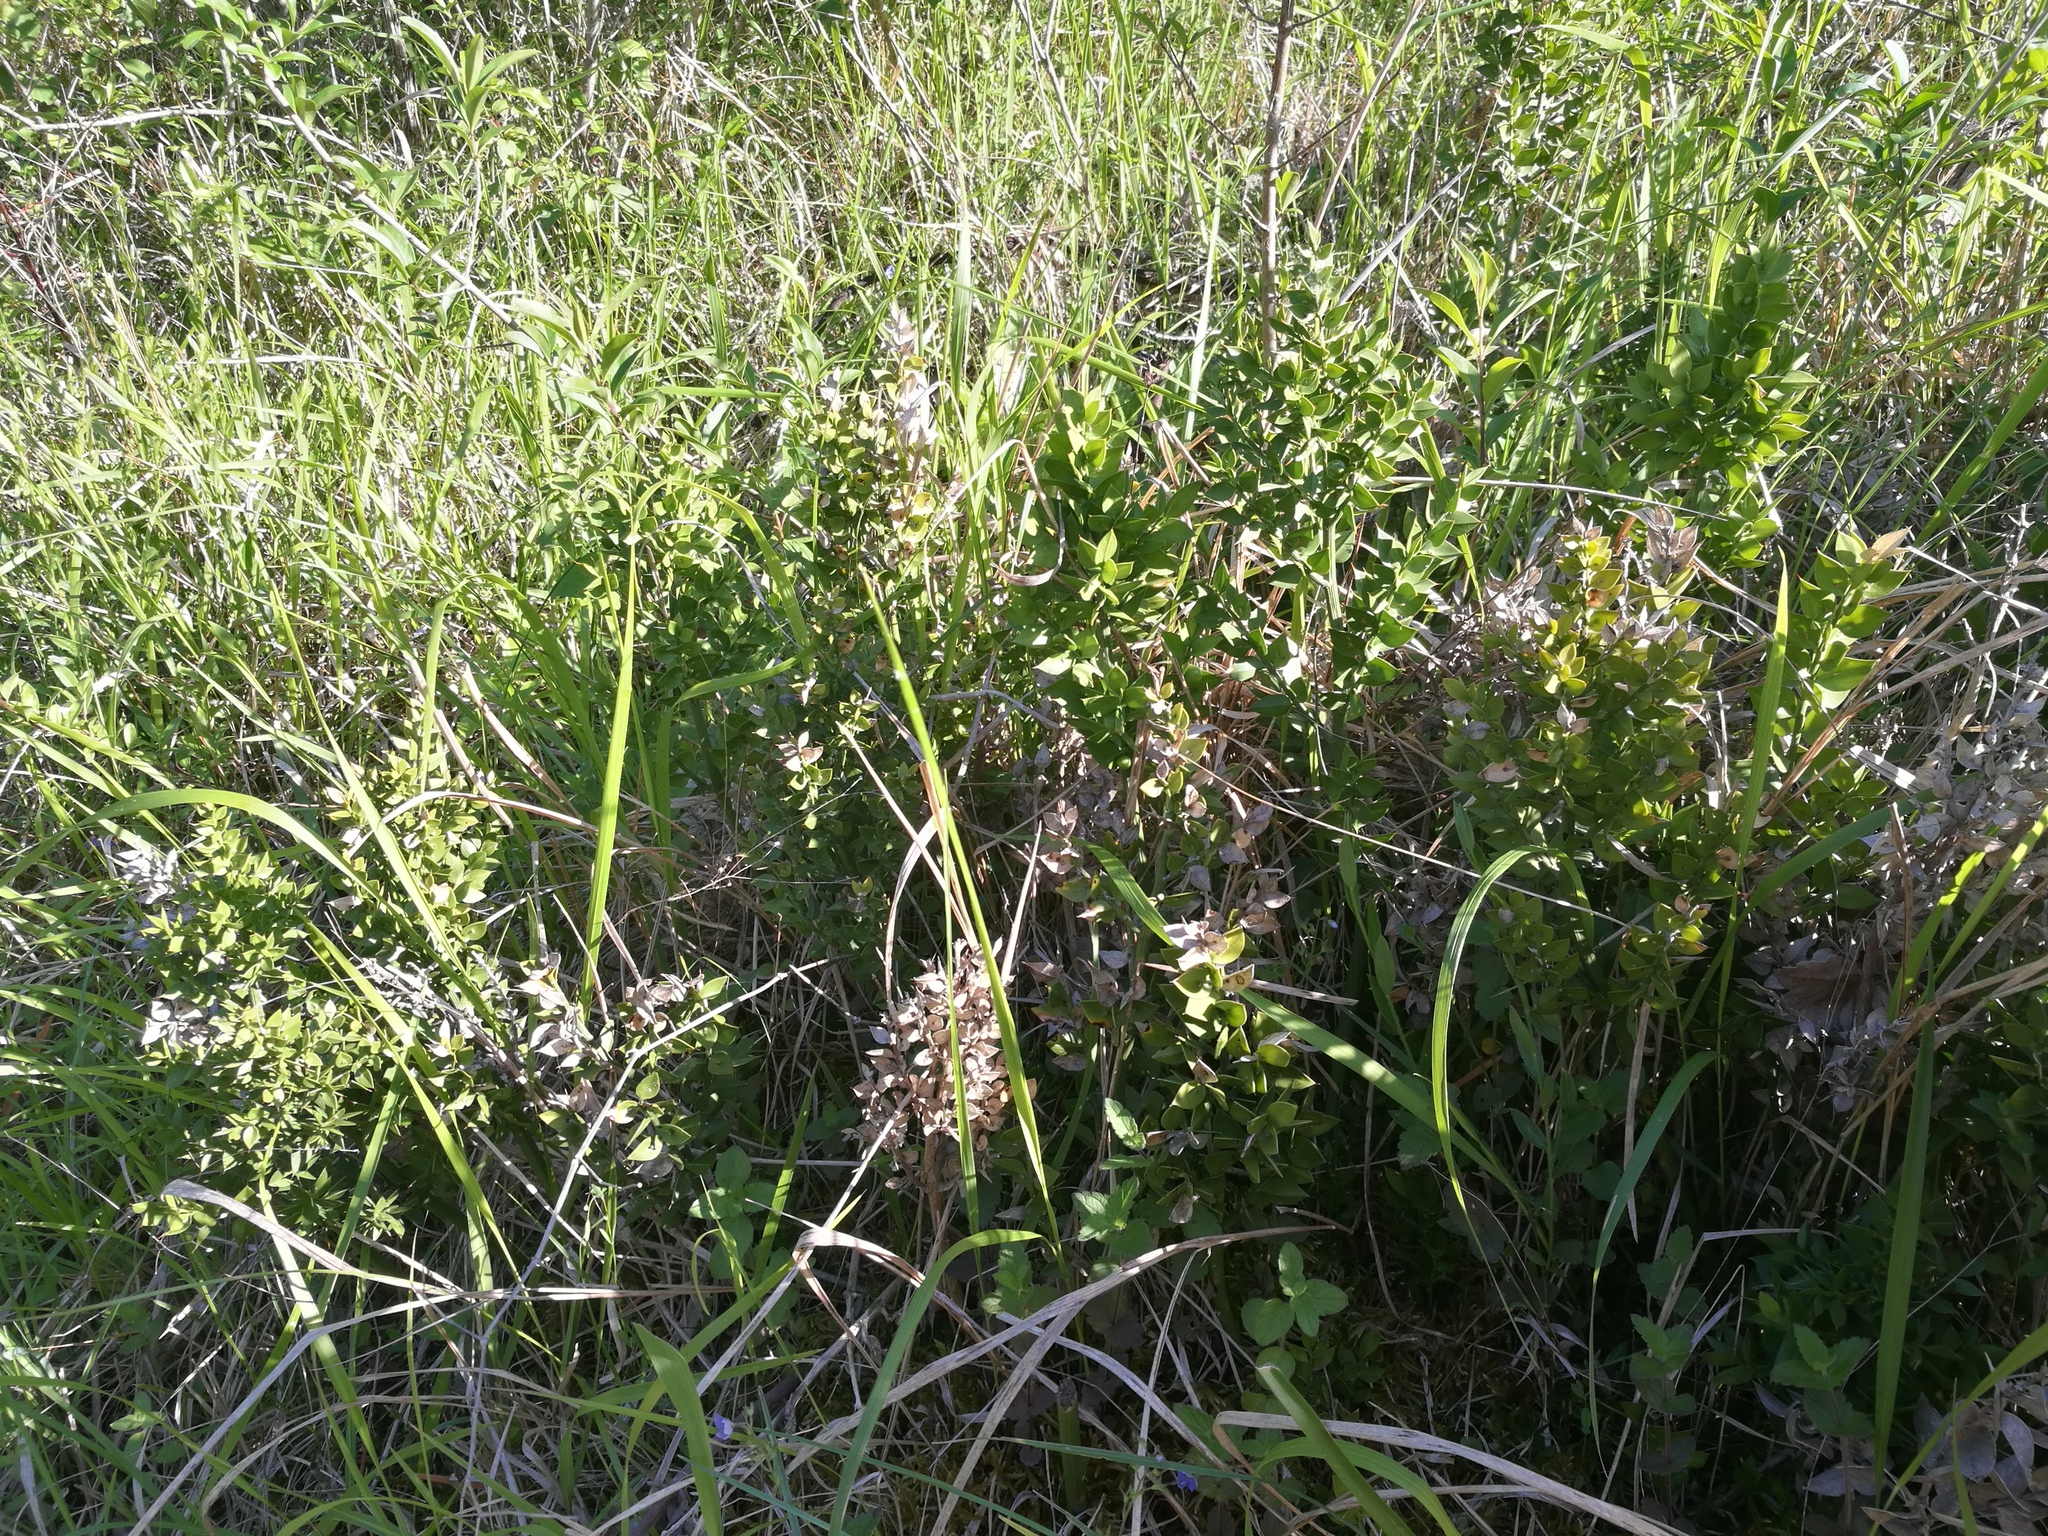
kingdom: Plantae
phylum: Tracheophyta
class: Liliopsida
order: Asparagales
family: Asparagaceae
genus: Ruscus
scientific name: Ruscus aculeatus
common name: Butcher's-broom
